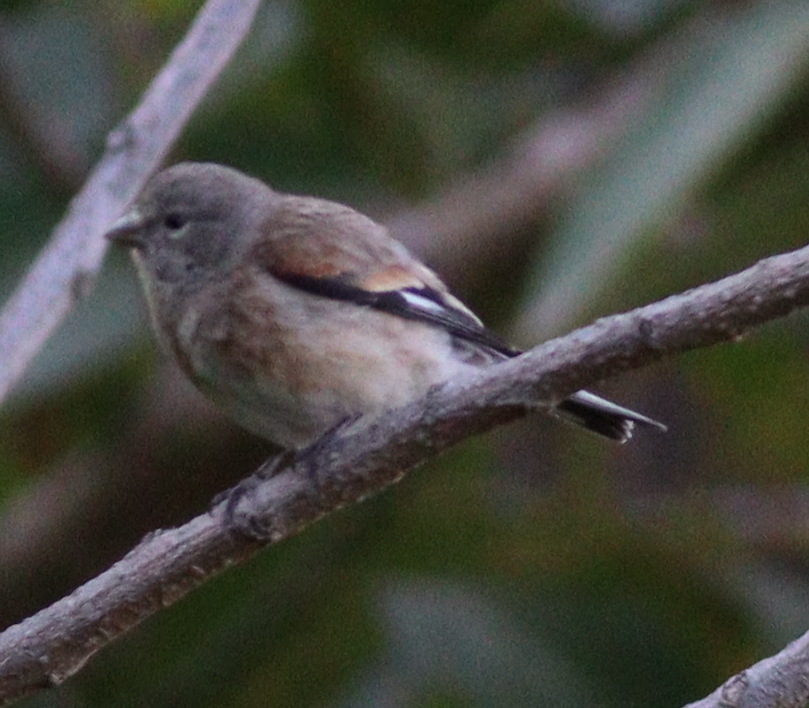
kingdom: Animalia
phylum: Chordata
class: Aves
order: Passeriformes
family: Fringillidae
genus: Linaria
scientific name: Linaria yemenensis
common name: Yemen linnet
